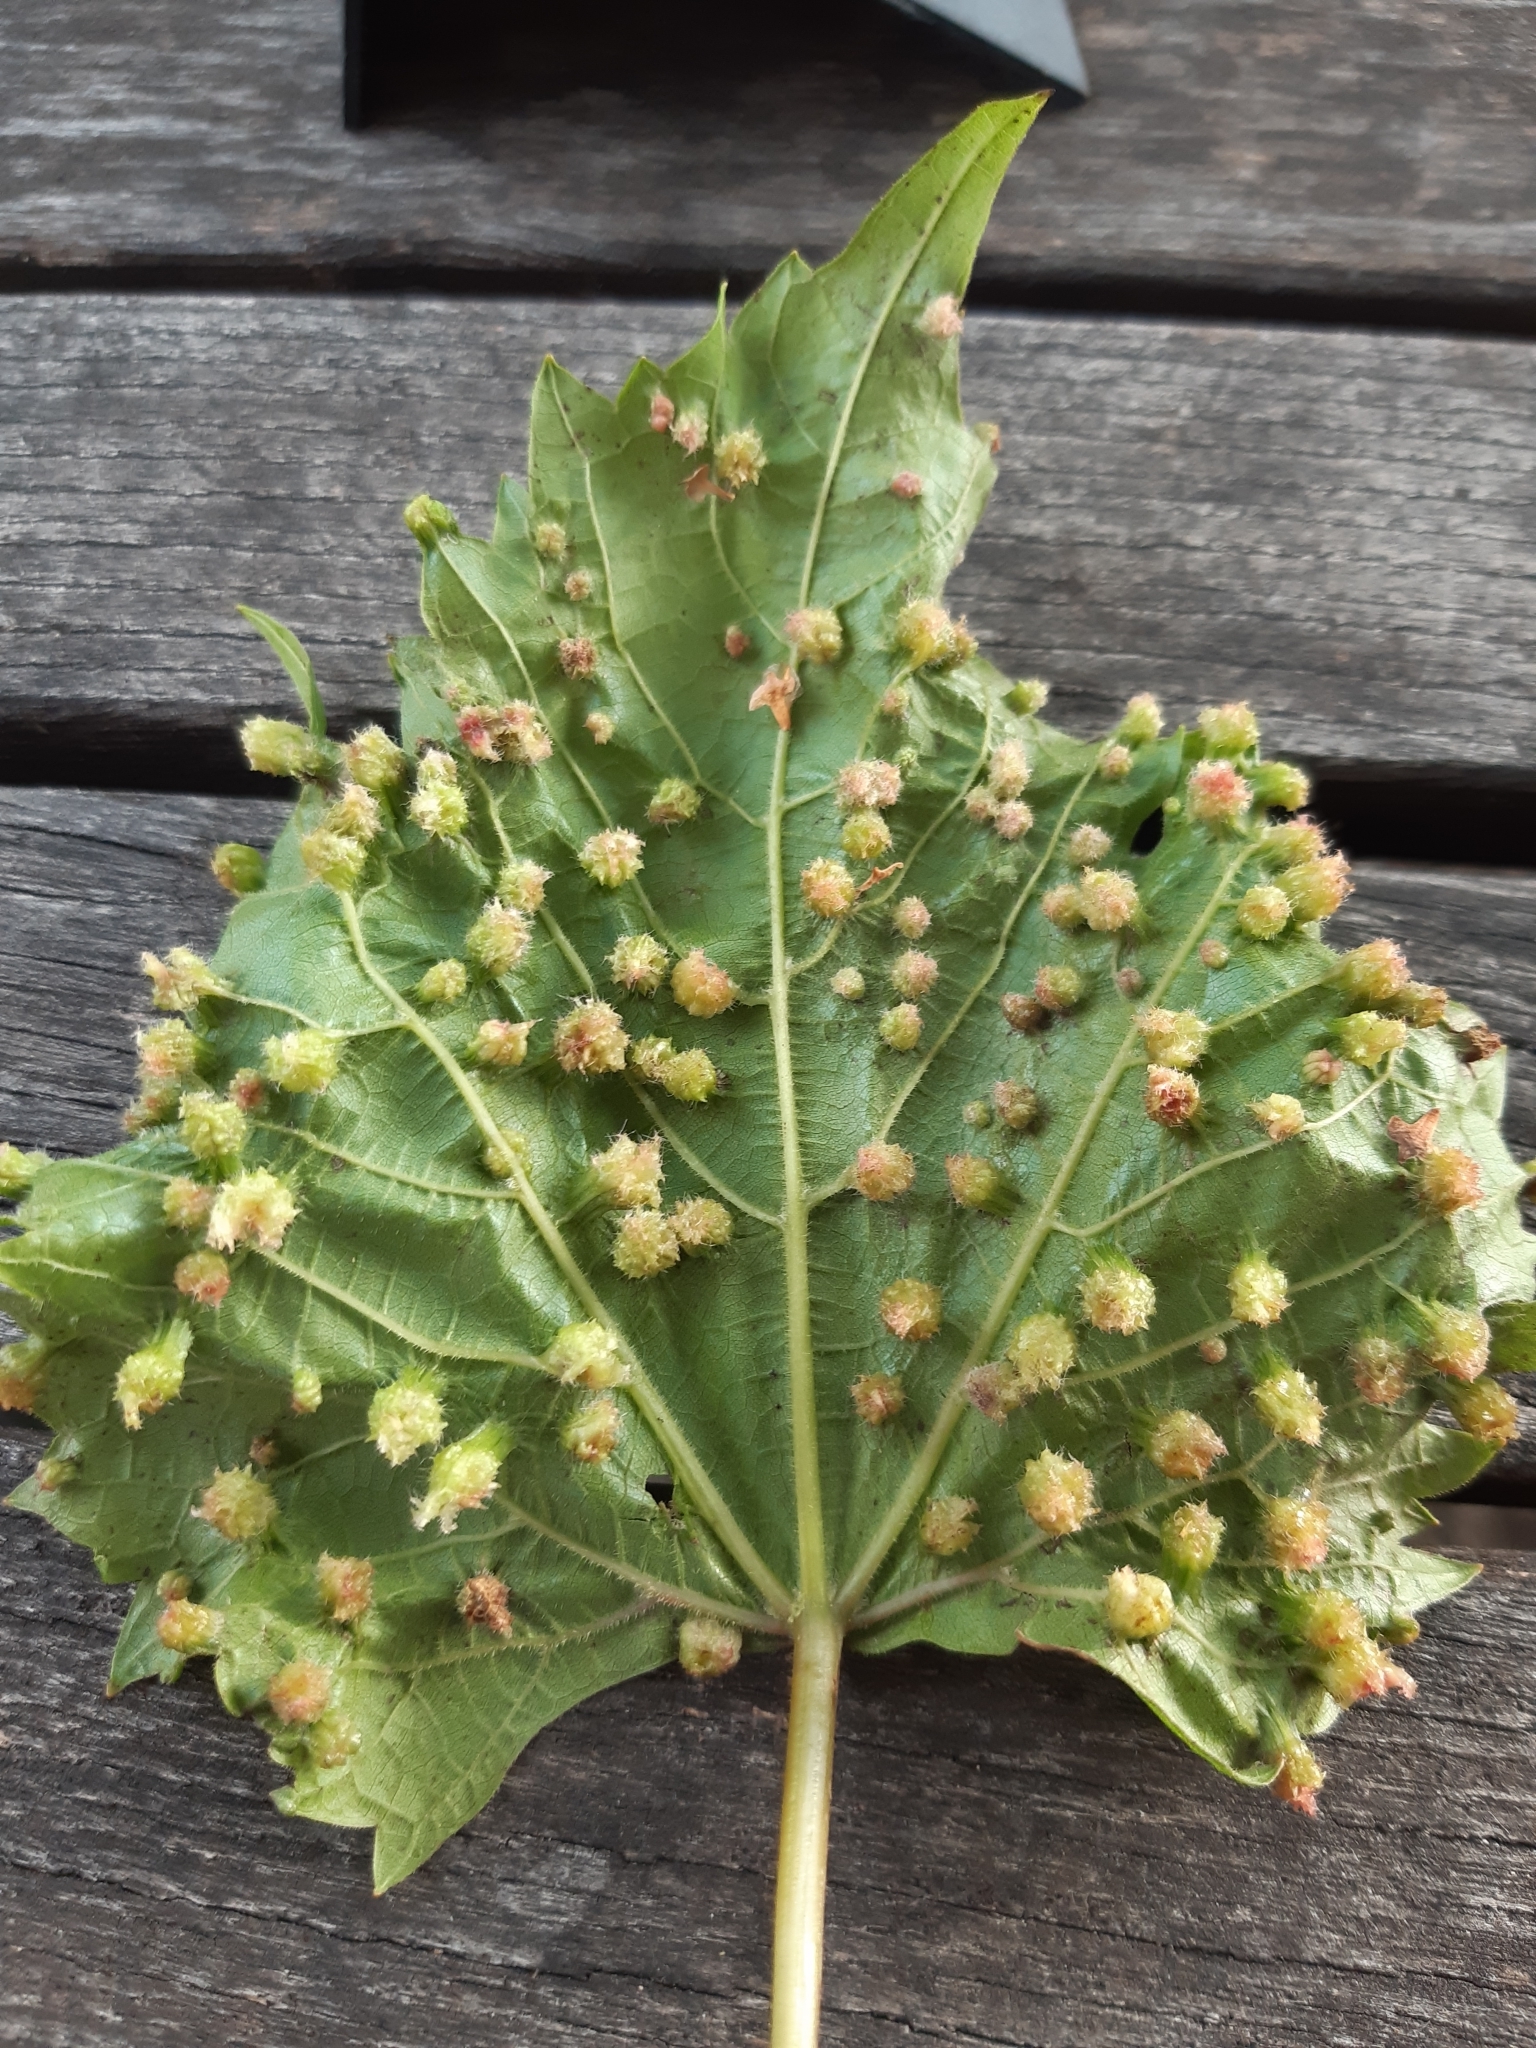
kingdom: Animalia
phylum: Arthropoda
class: Insecta
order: Hemiptera
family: Phylloxeridae
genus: Daktulosphaira
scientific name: Daktulosphaira vitifoliae
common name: Grape phylloxera
